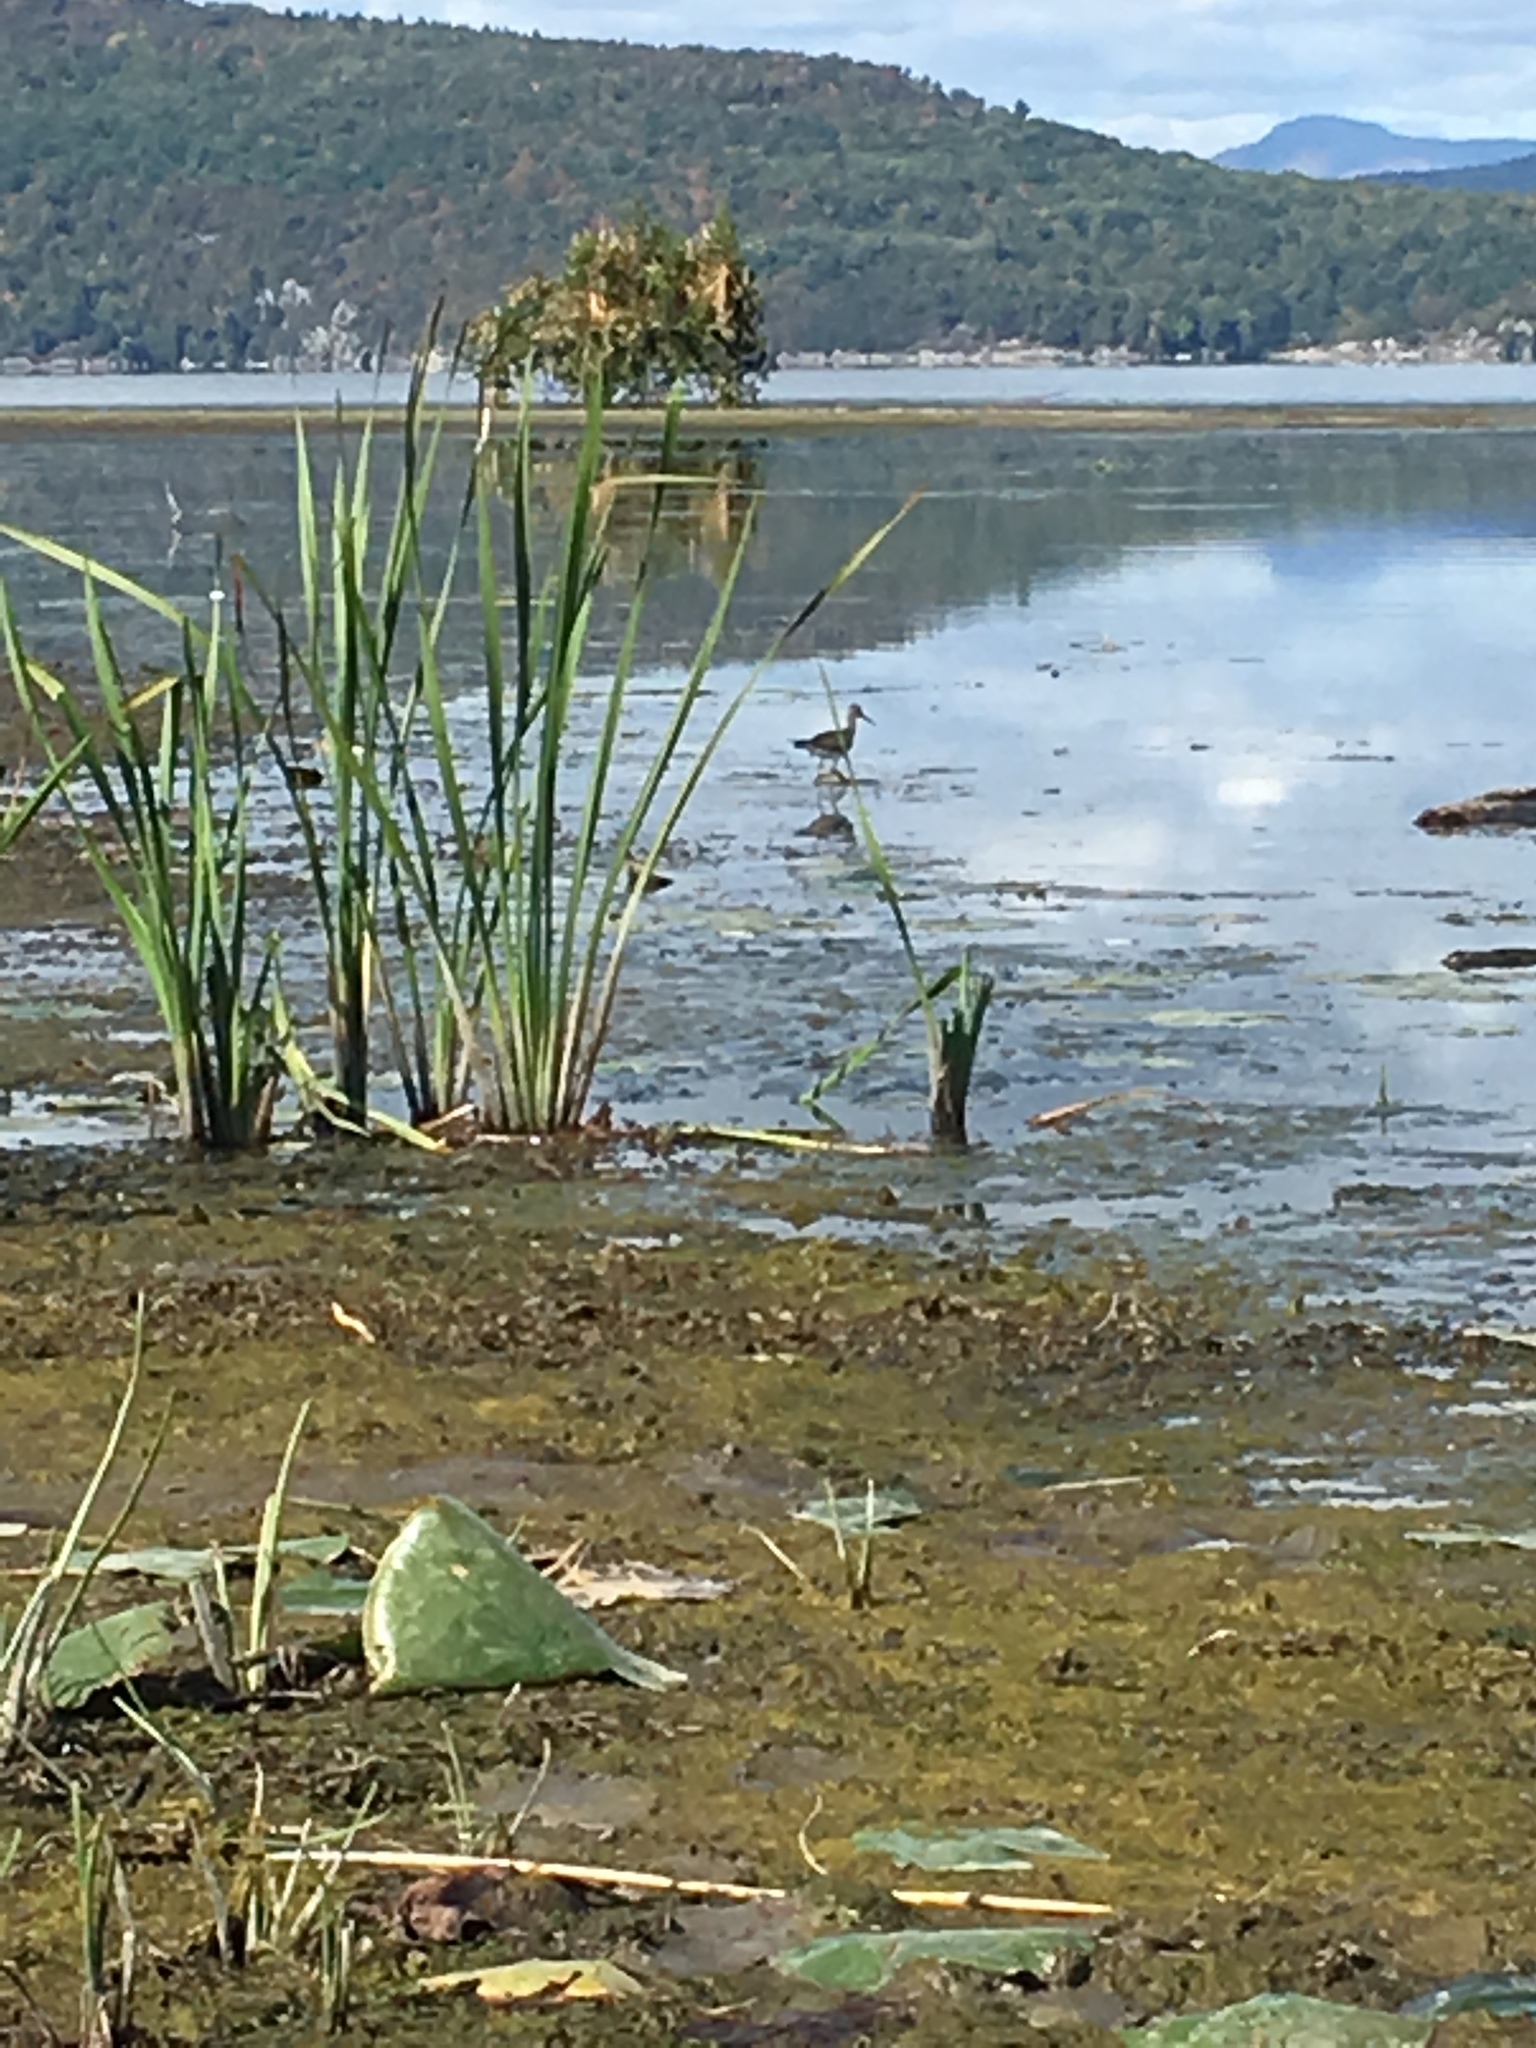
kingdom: Animalia
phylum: Chordata
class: Aves
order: Charadriiformes
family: Scolopacidae
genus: Tringa
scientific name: Tringa melanoleuca
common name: Greater yellowlegs
